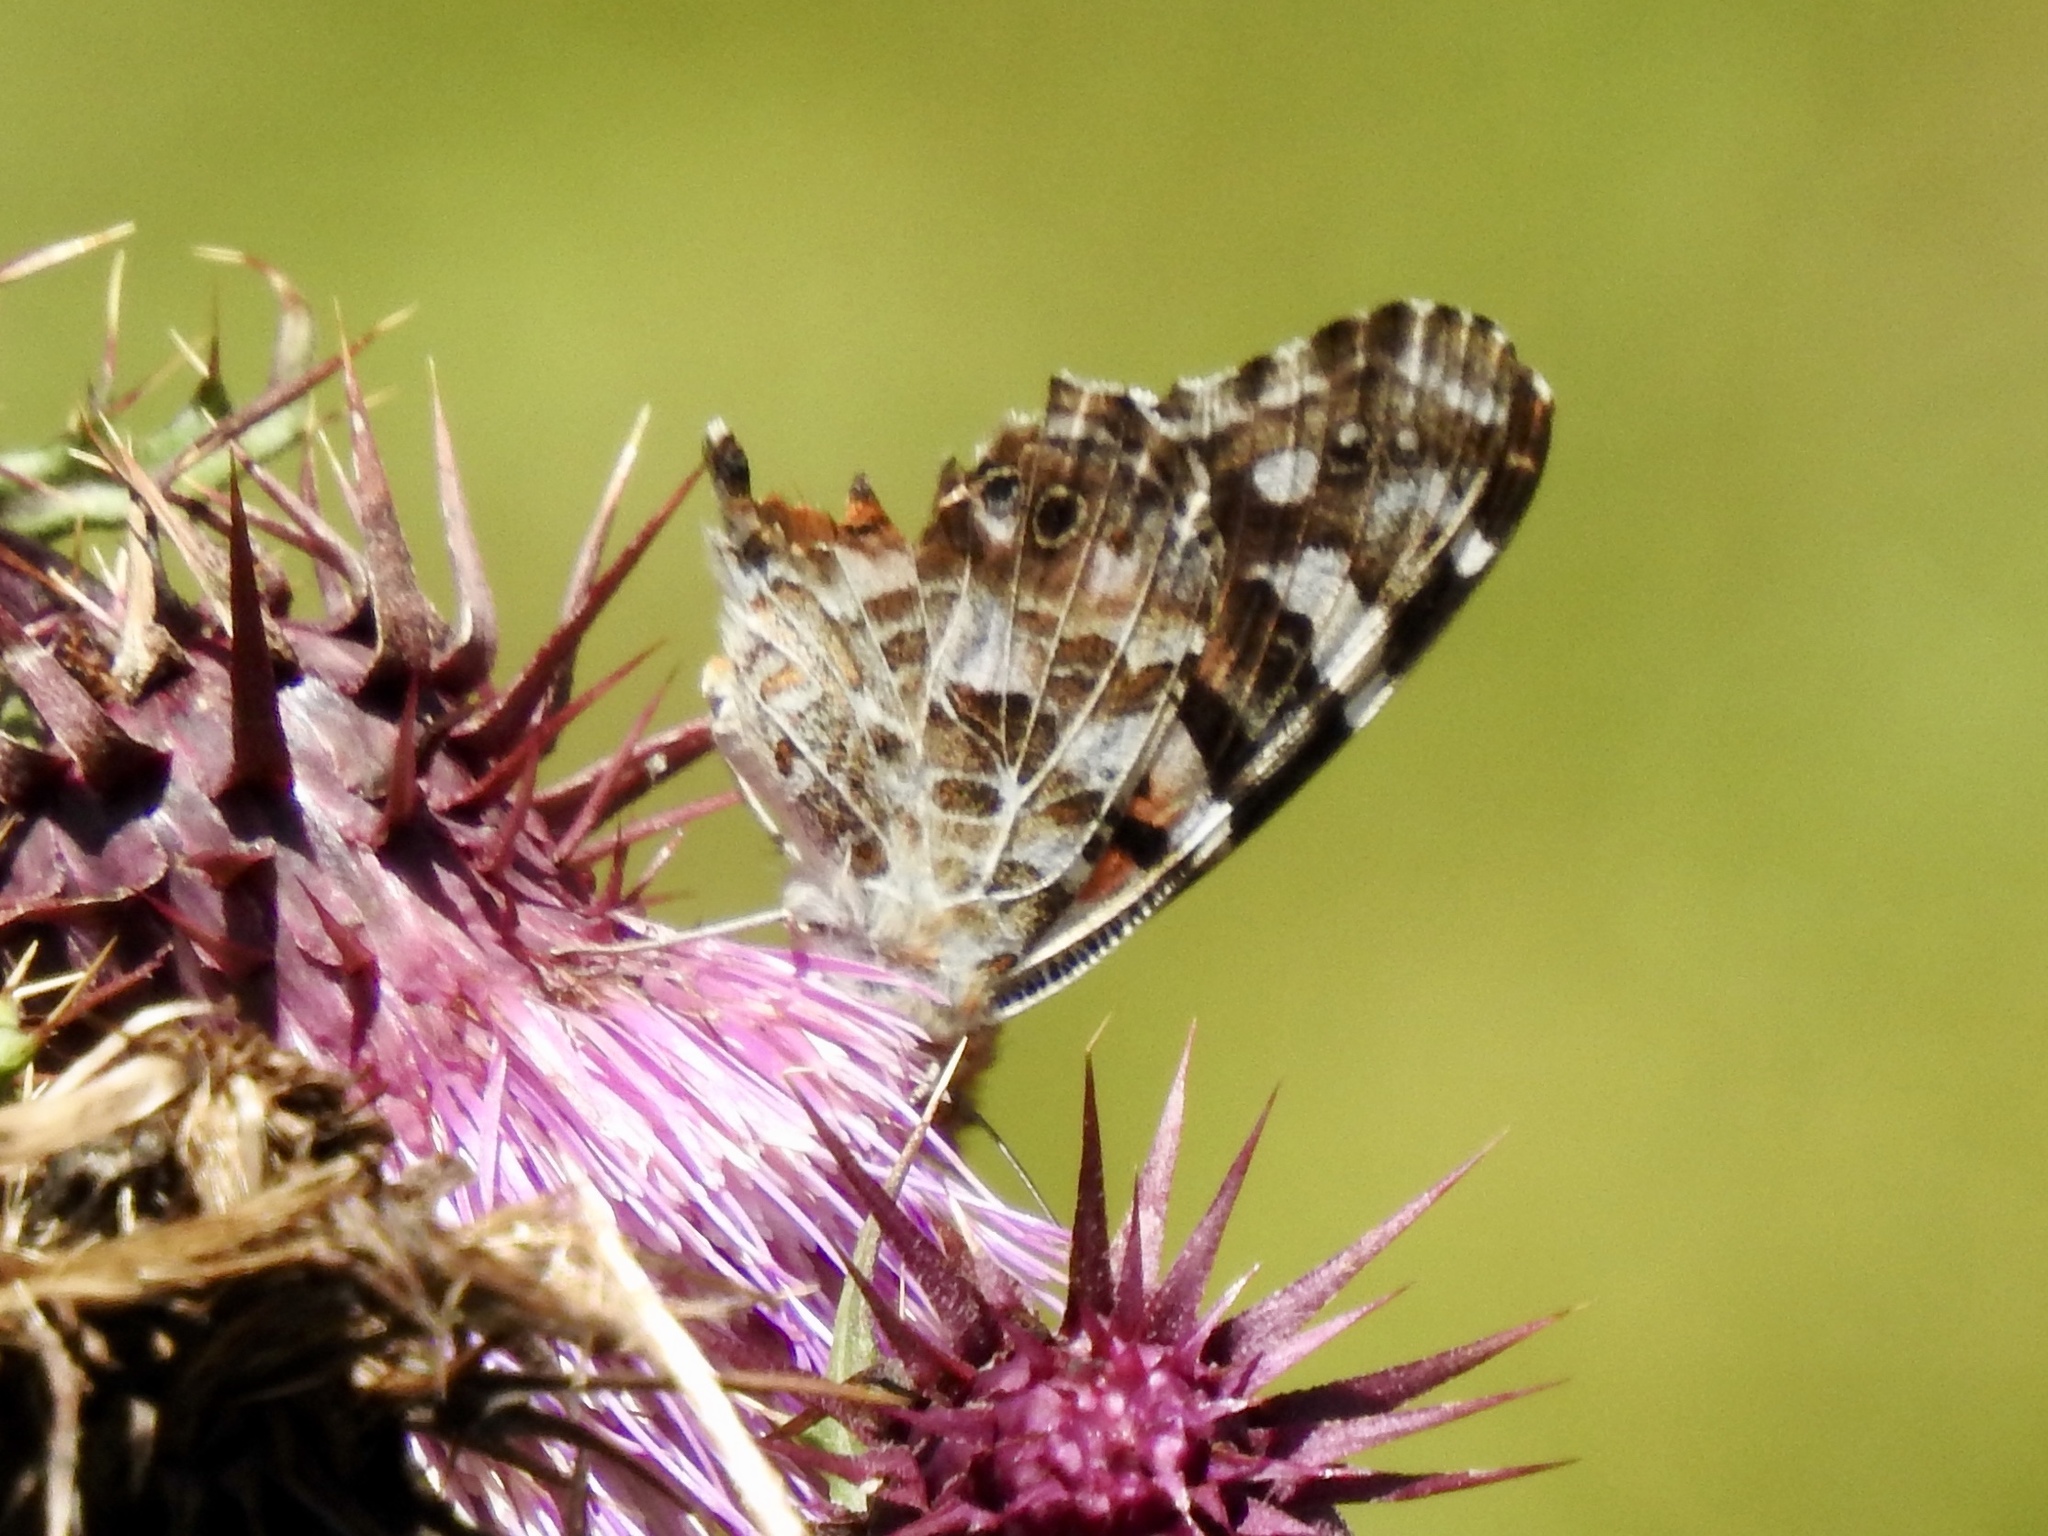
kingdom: Animalia
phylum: Arthropoda
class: Insecta
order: Lepidoptera
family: Nymphalidae
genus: Vanessa
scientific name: Vanessa cardui
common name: Painted lady
